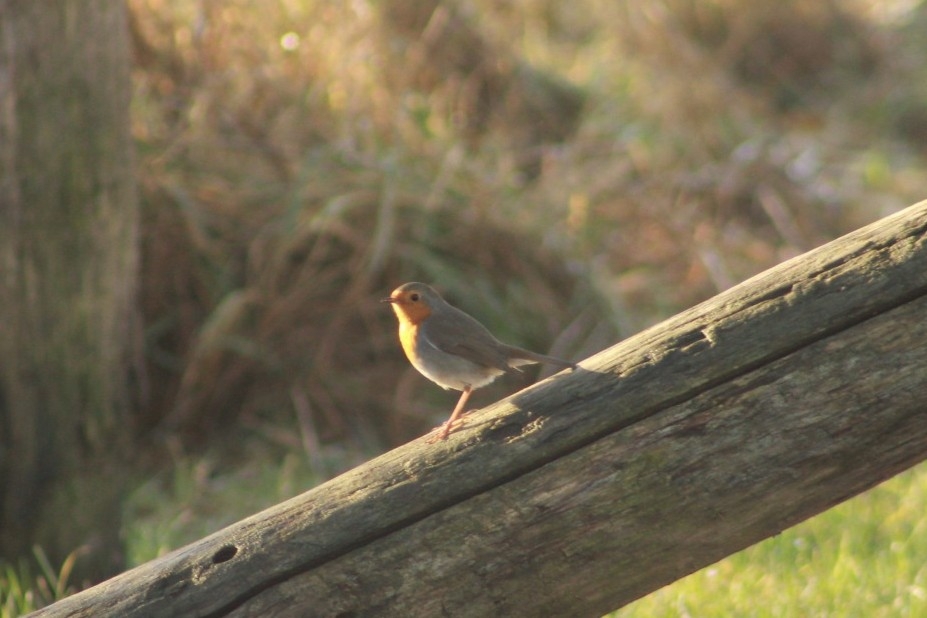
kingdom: Animalia
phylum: Chordata
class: Aves
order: Passeriformes
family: Muscicapidae
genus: Erithacus
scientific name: Erithacus rubecula
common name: European robin
